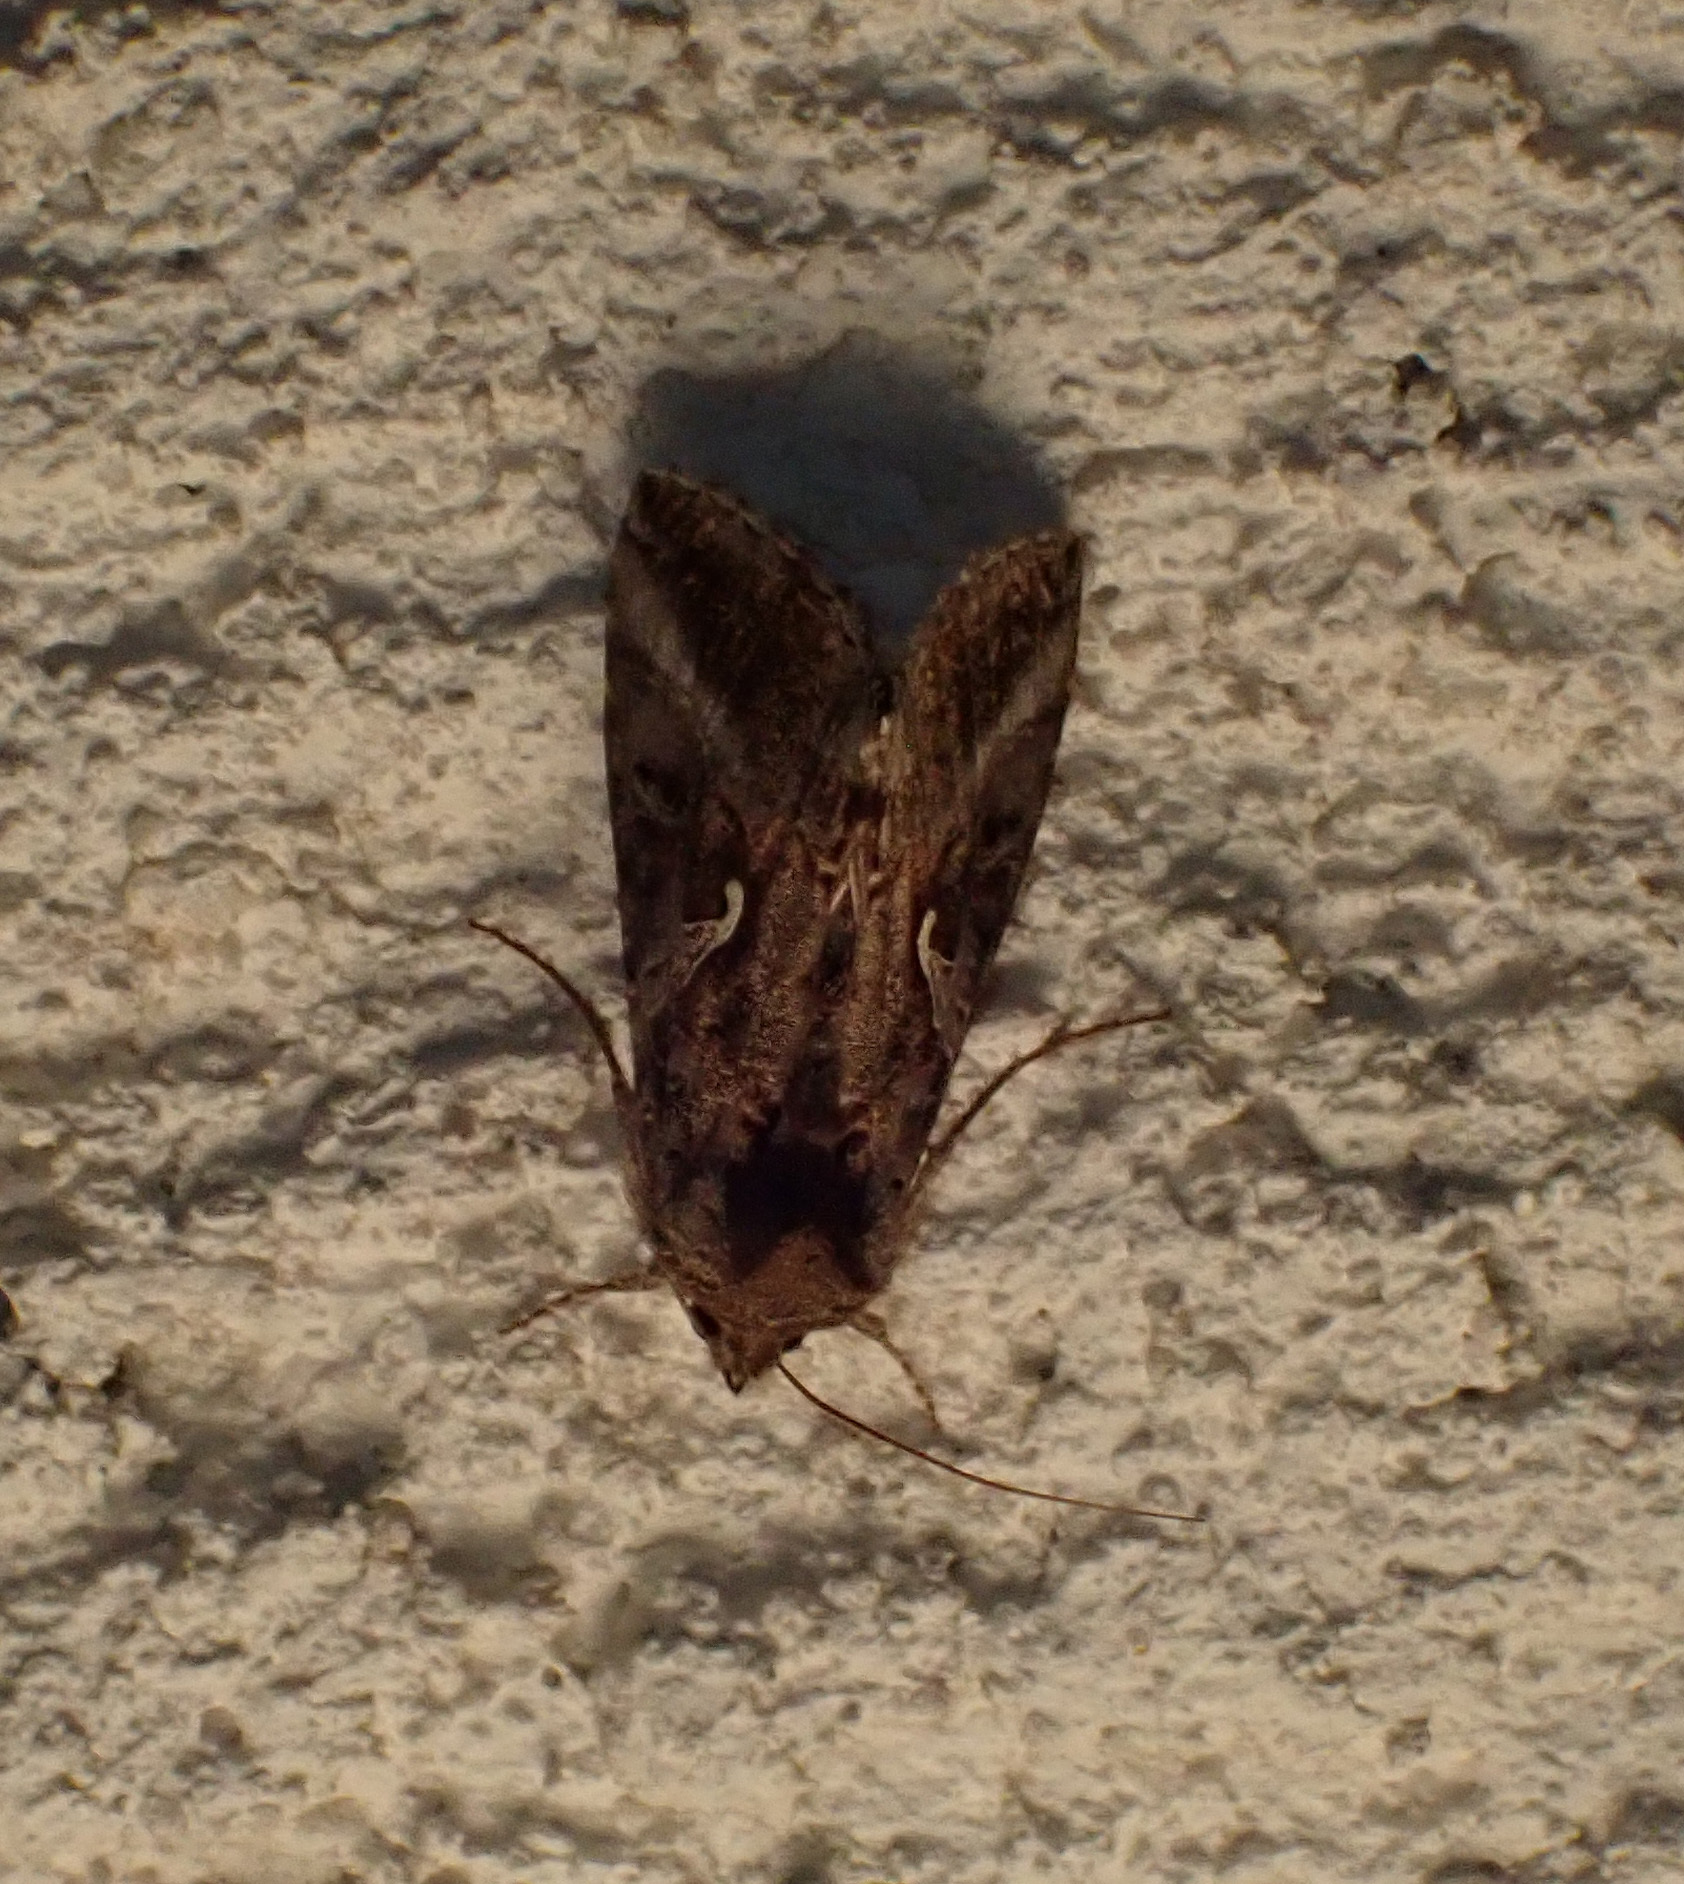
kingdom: Animalia
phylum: Arthropoda
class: Insecta
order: Lepidoptera
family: Noctuidae
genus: Autographa
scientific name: Autographa gamma
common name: Silver y
